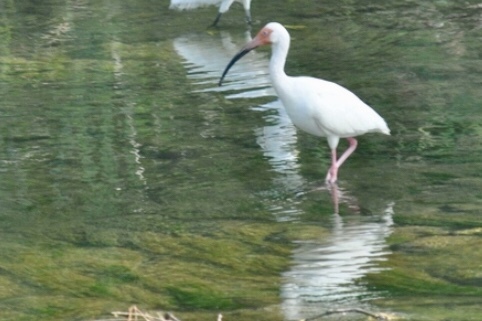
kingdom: Animalia
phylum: Chordata
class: Aves
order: Pelecaniformes
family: Threskiornithidae
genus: Eudocimus
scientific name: Eudocimus albus
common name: White ibis
